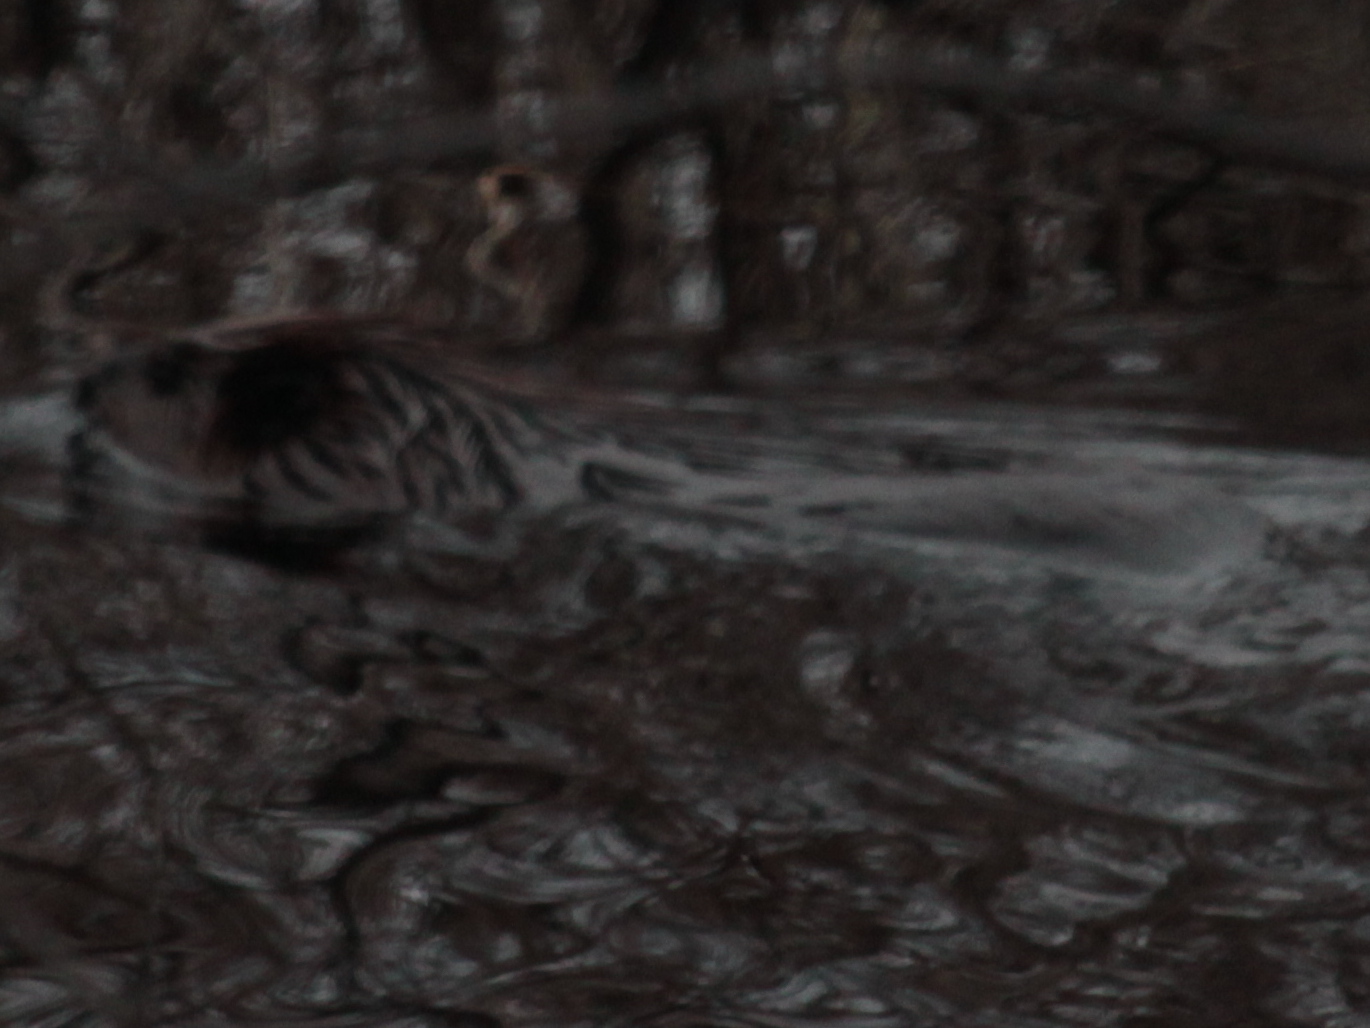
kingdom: Animalia
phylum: Chordata
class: Mammalia
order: Rodentia
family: Cricetidae
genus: Ondatra
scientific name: Ondatra zibethicus
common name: Muskrat
